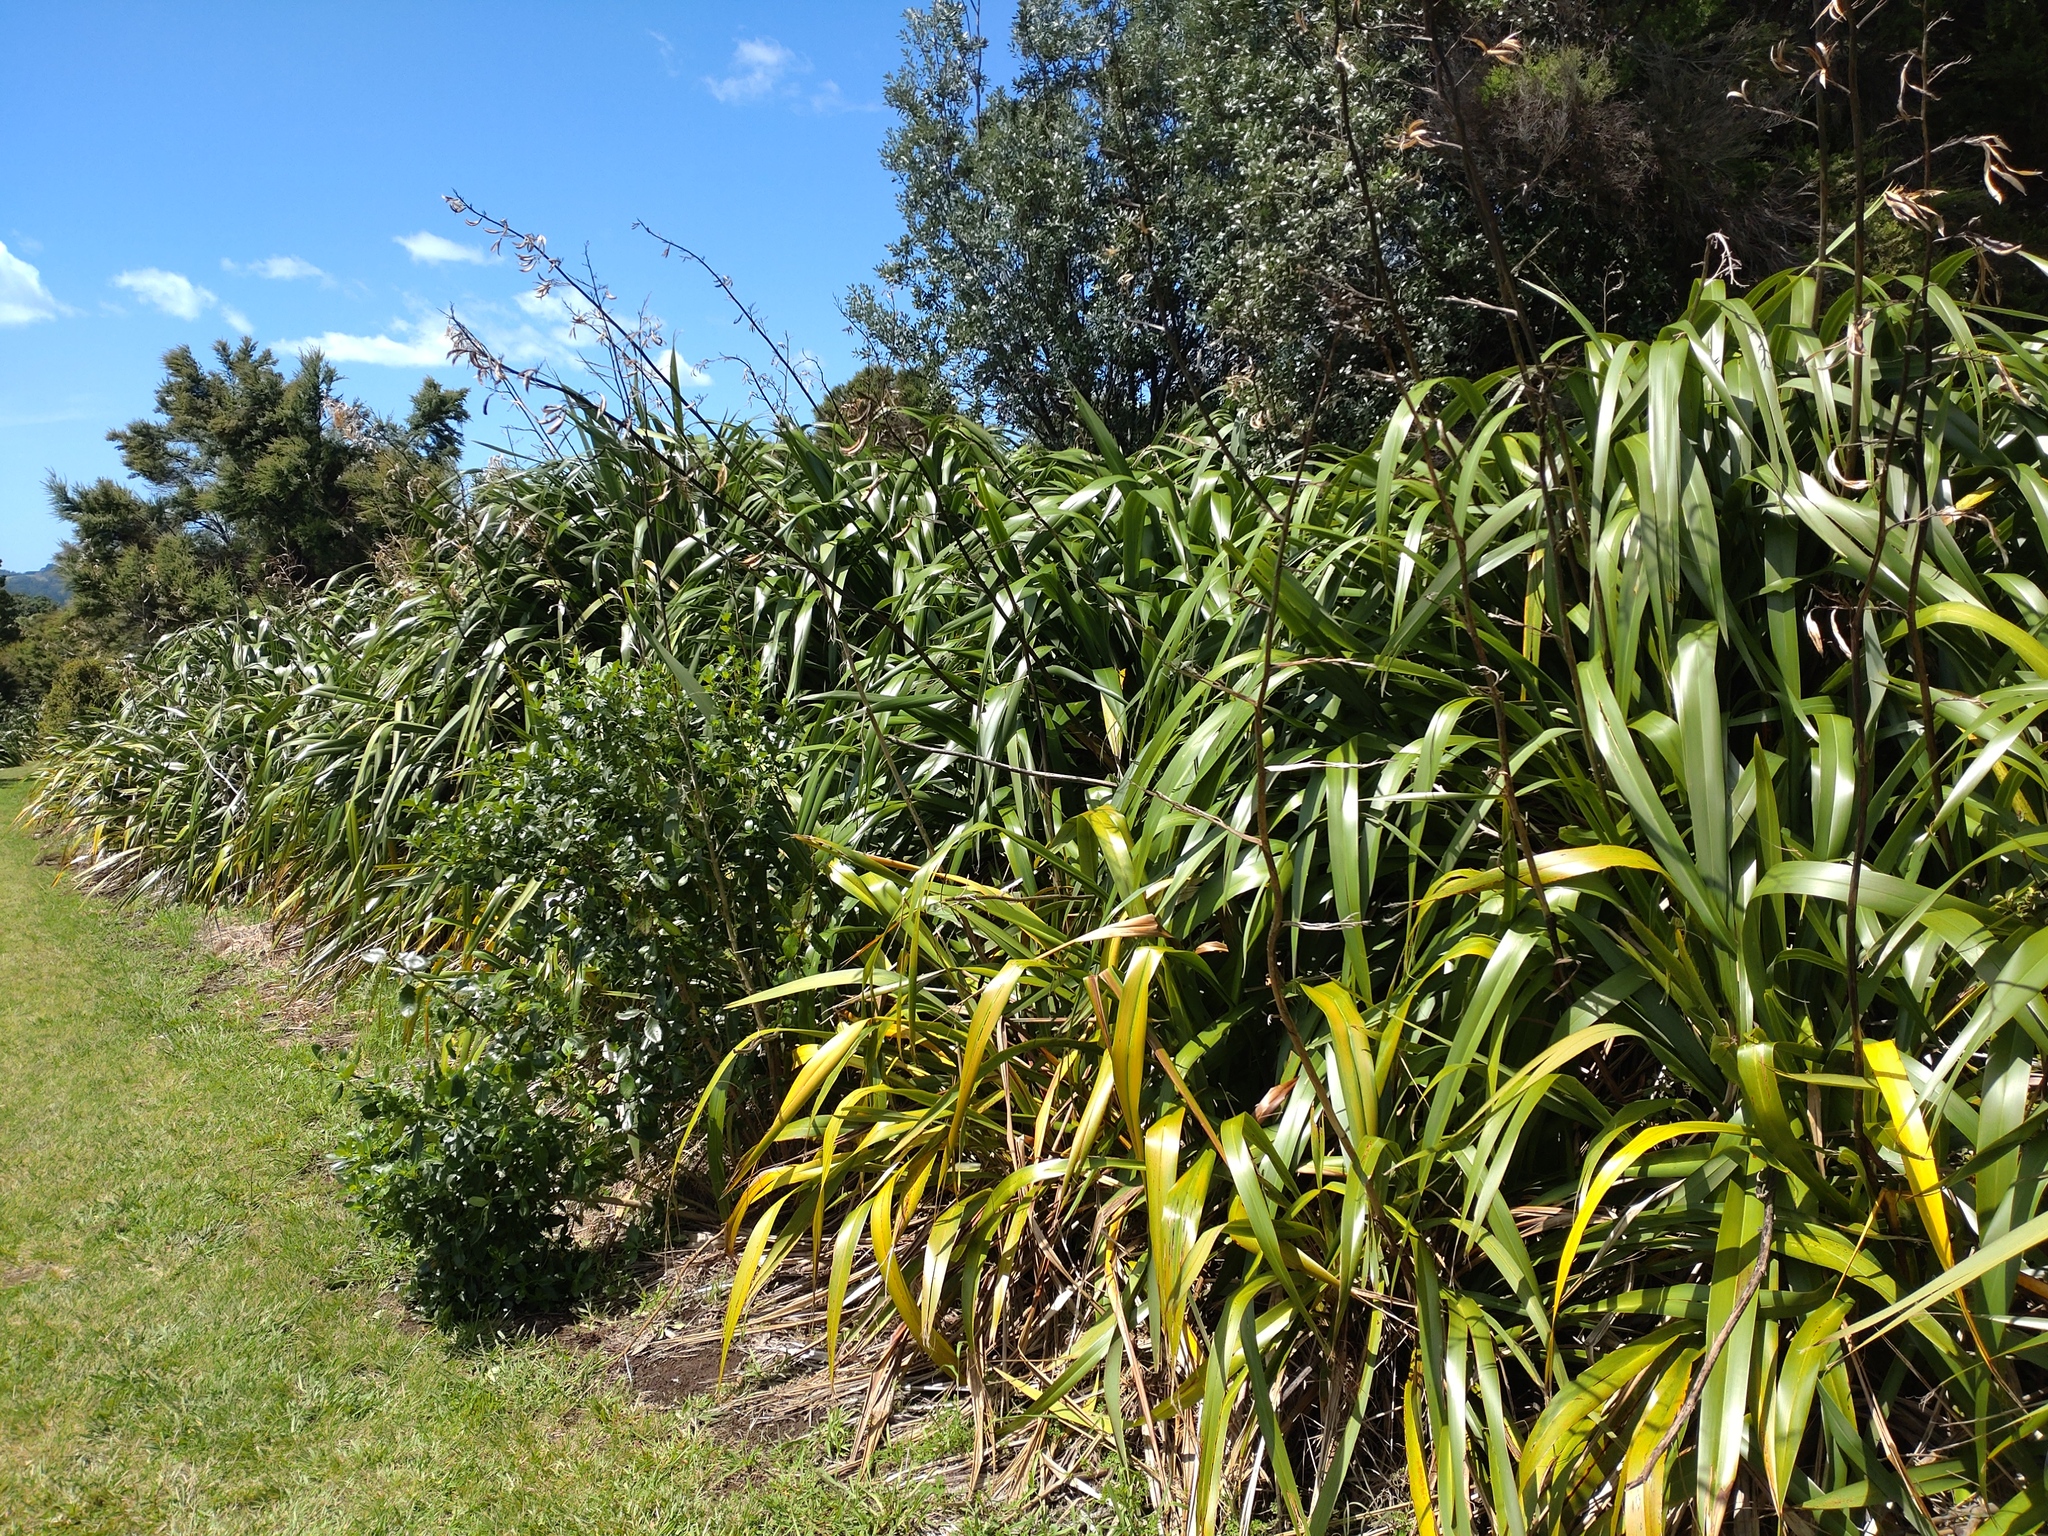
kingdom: Plantae
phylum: Tracheophyta
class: Liliopsida
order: Asparagales
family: Asphodelaceae
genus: Phormium
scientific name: Phormium colensoi
